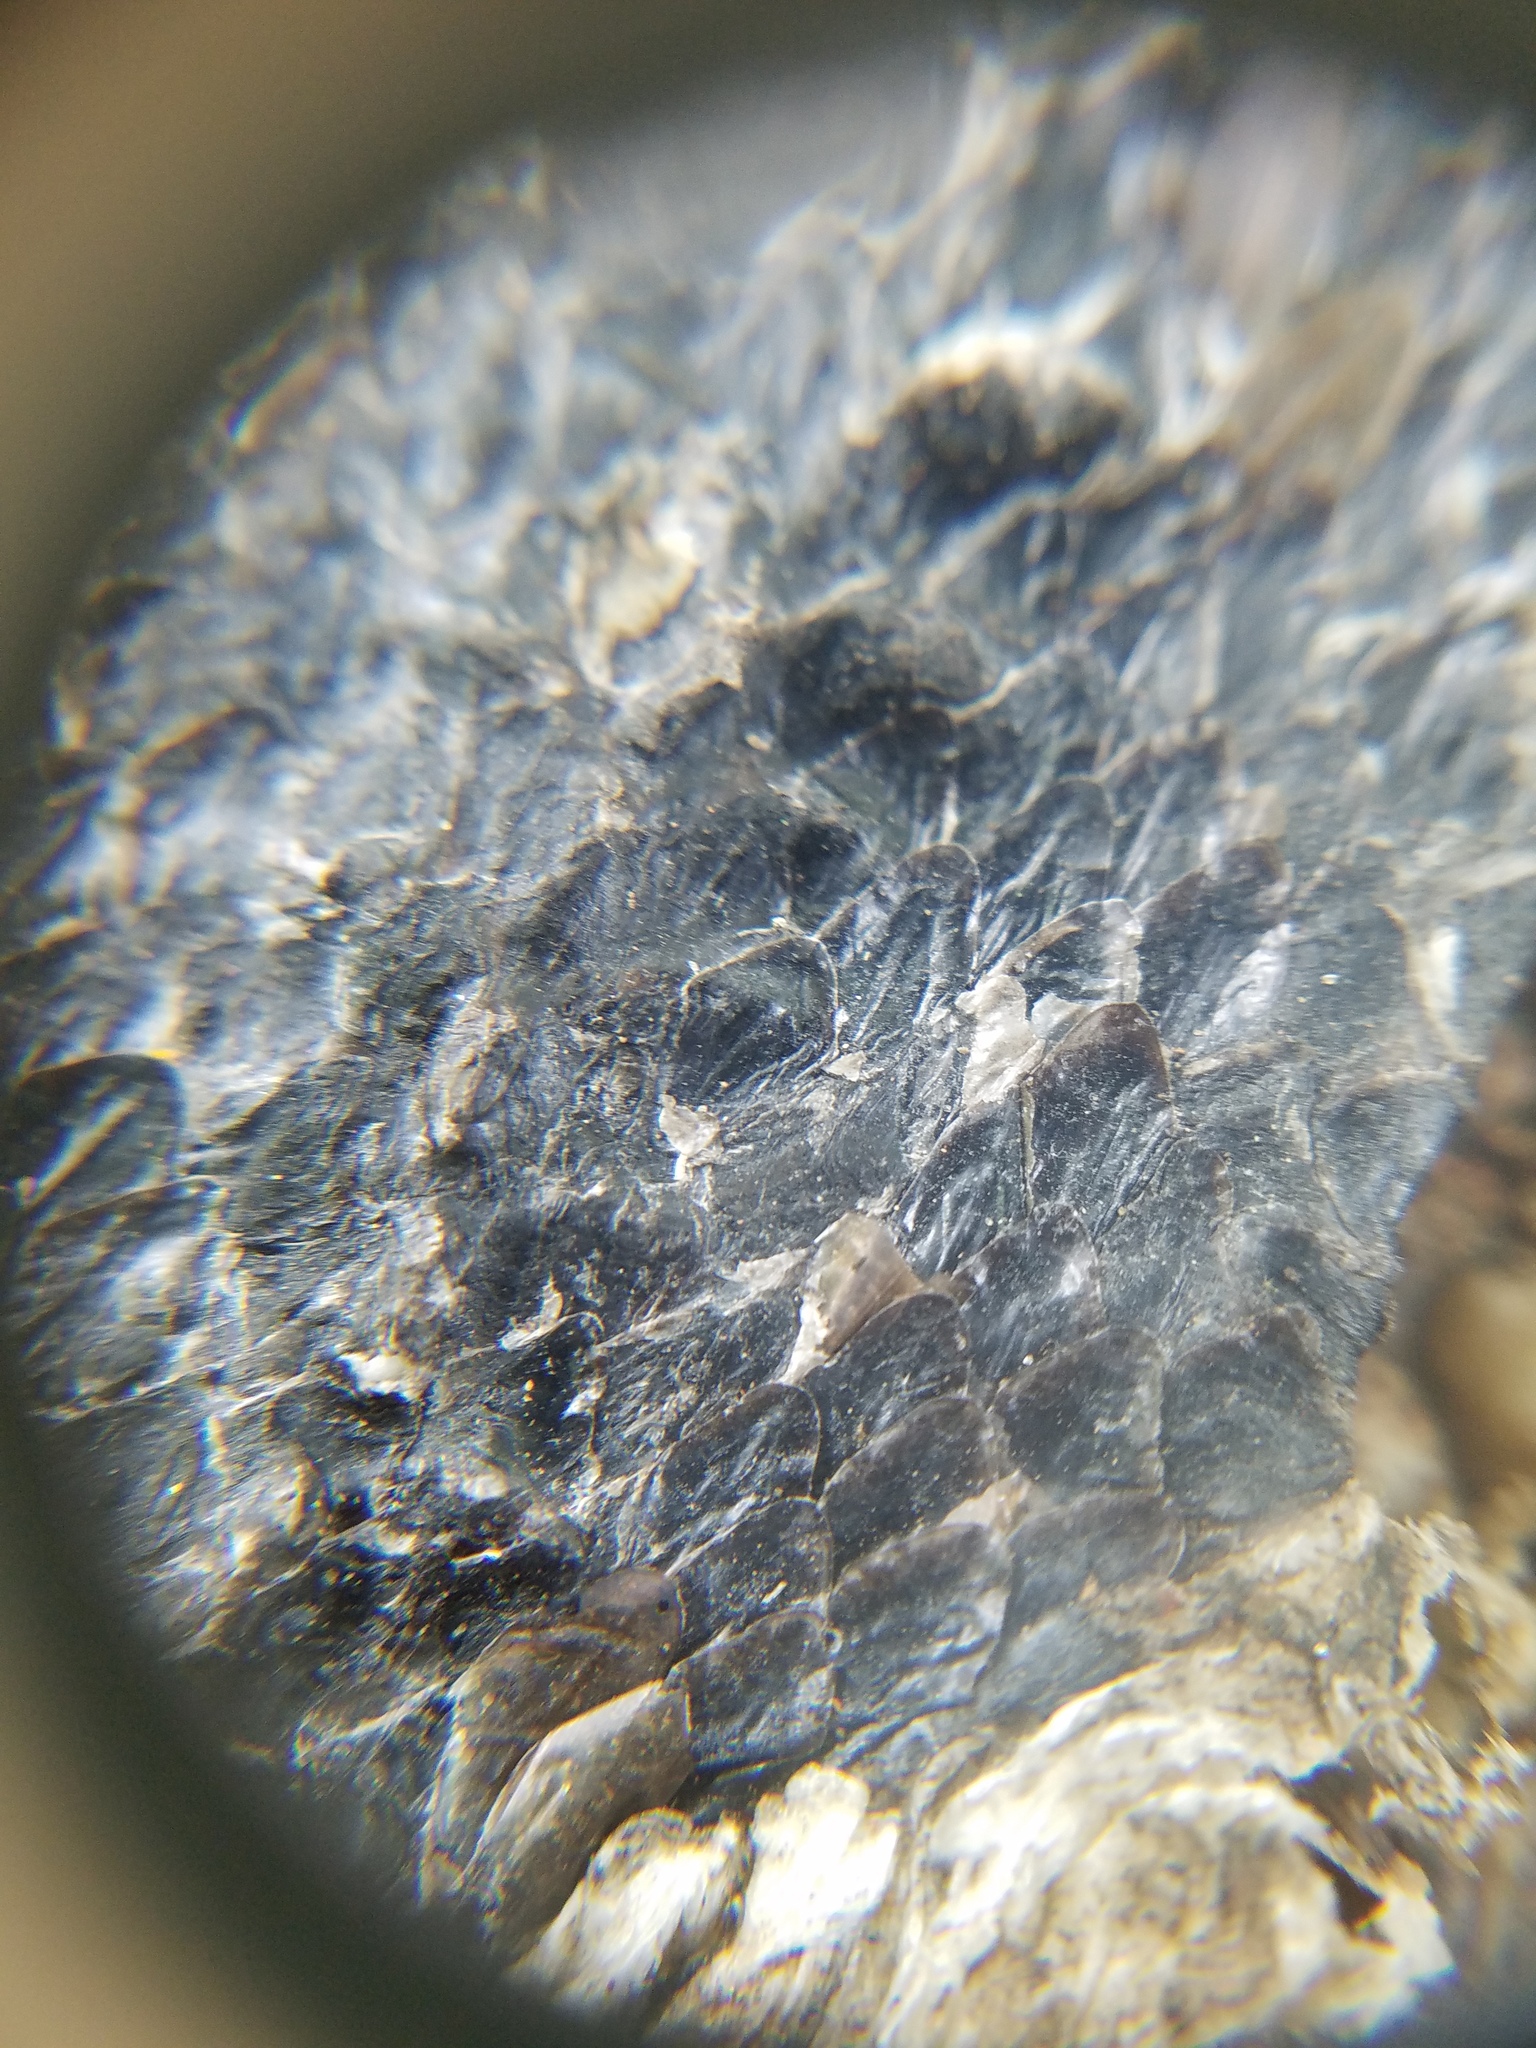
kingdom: Animalia
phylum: Chordata
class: Squamata
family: Colubridae
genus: Pantherophis
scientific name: Pantherophis alleghaniensis
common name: Eastern rat snake
